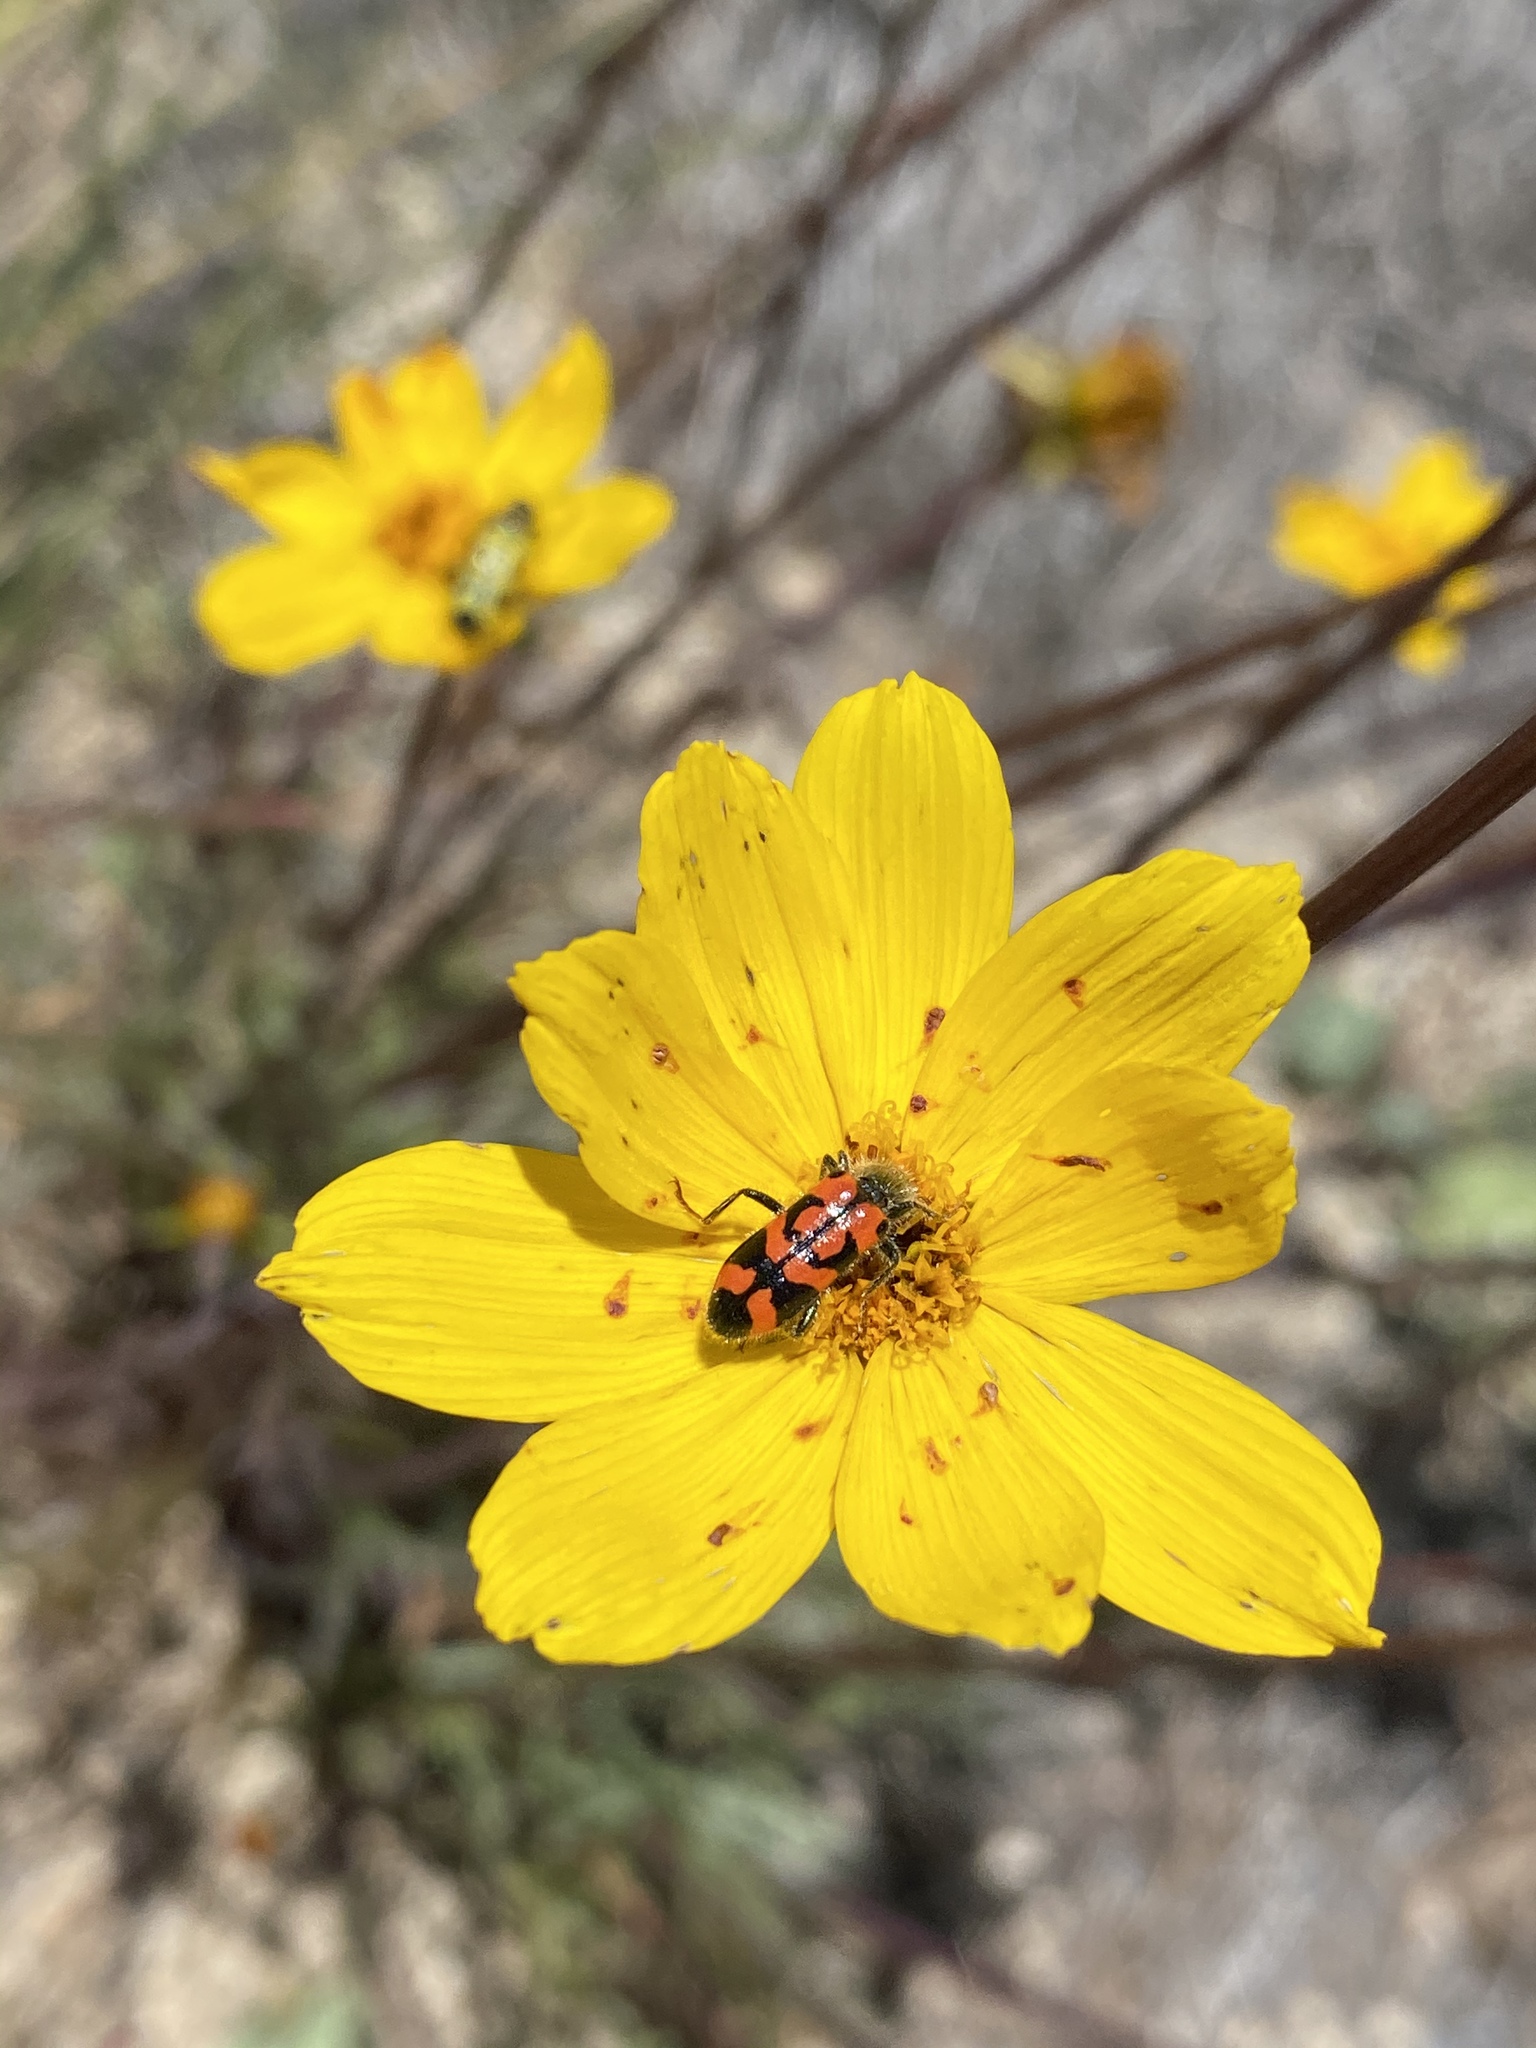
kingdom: Animalia
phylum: Arthropoda
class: Insecta
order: Coleoptera
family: Cleridae
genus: Trichodes
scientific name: Trichodes ornatus
